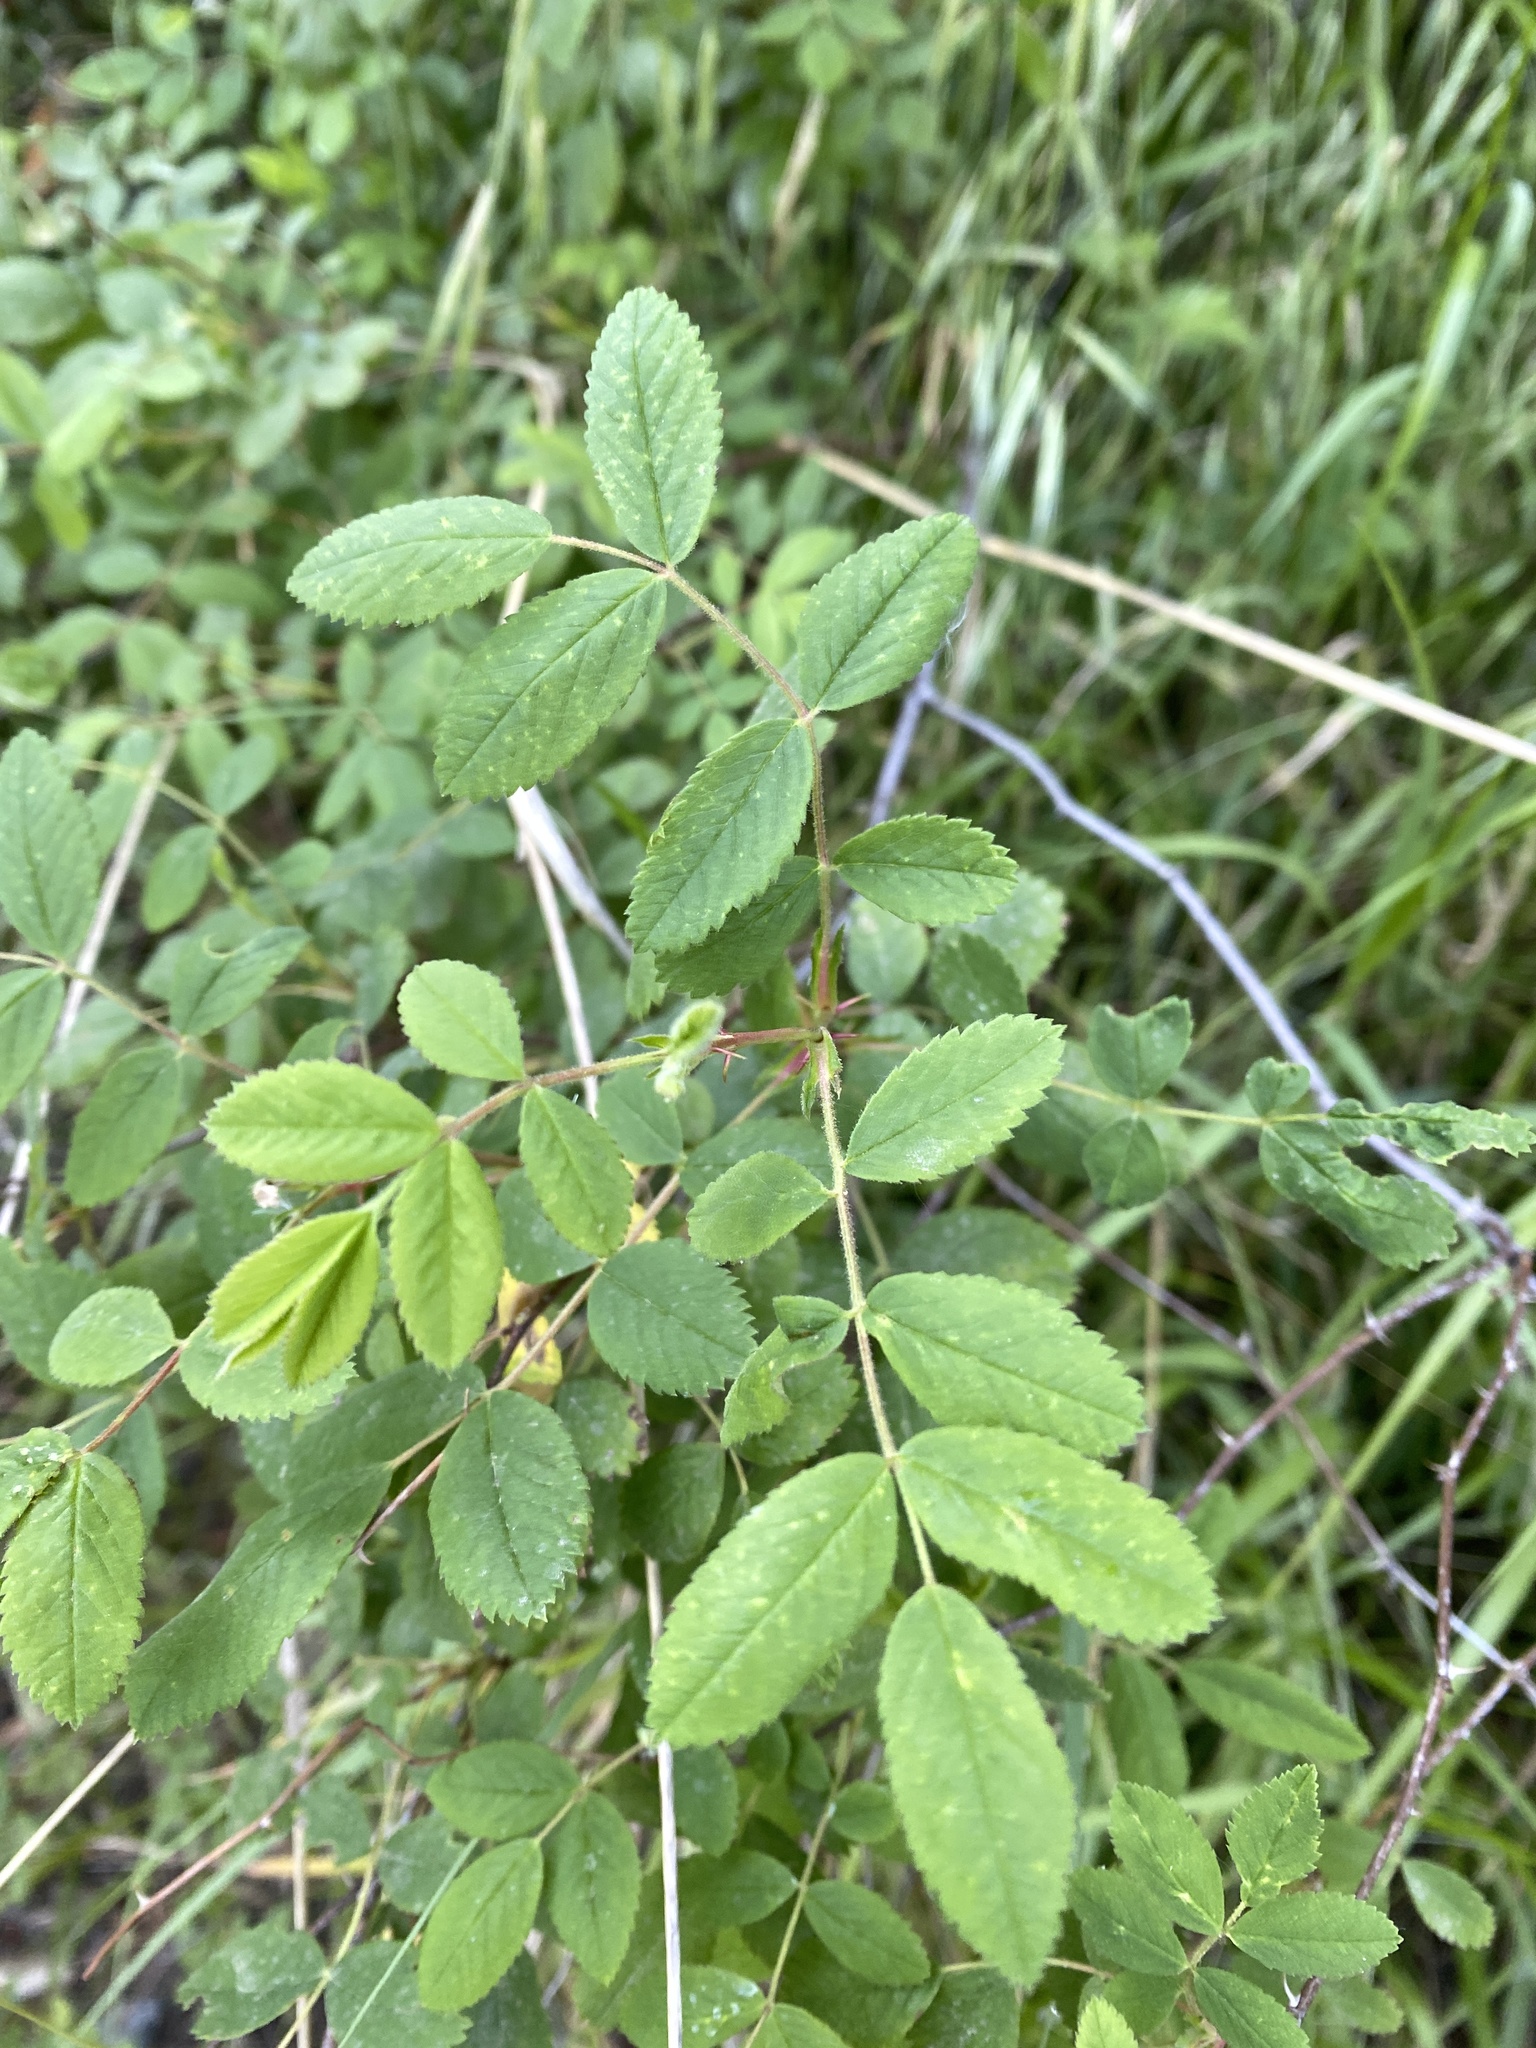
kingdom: Plantae
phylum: Tracheophyta
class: Magnoliopsida
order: Rosales
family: Rosaceae
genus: Rosa
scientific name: Rosa californica
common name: California rose
